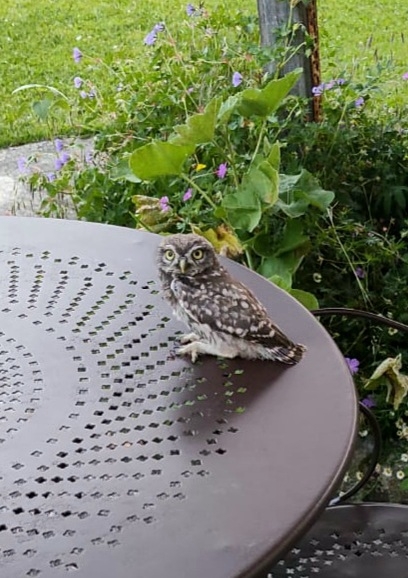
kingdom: Animalia
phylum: Chordata
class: Aves
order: Strigiformes
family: Strigidae
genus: Athene
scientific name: Athene noctua
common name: Little owl
